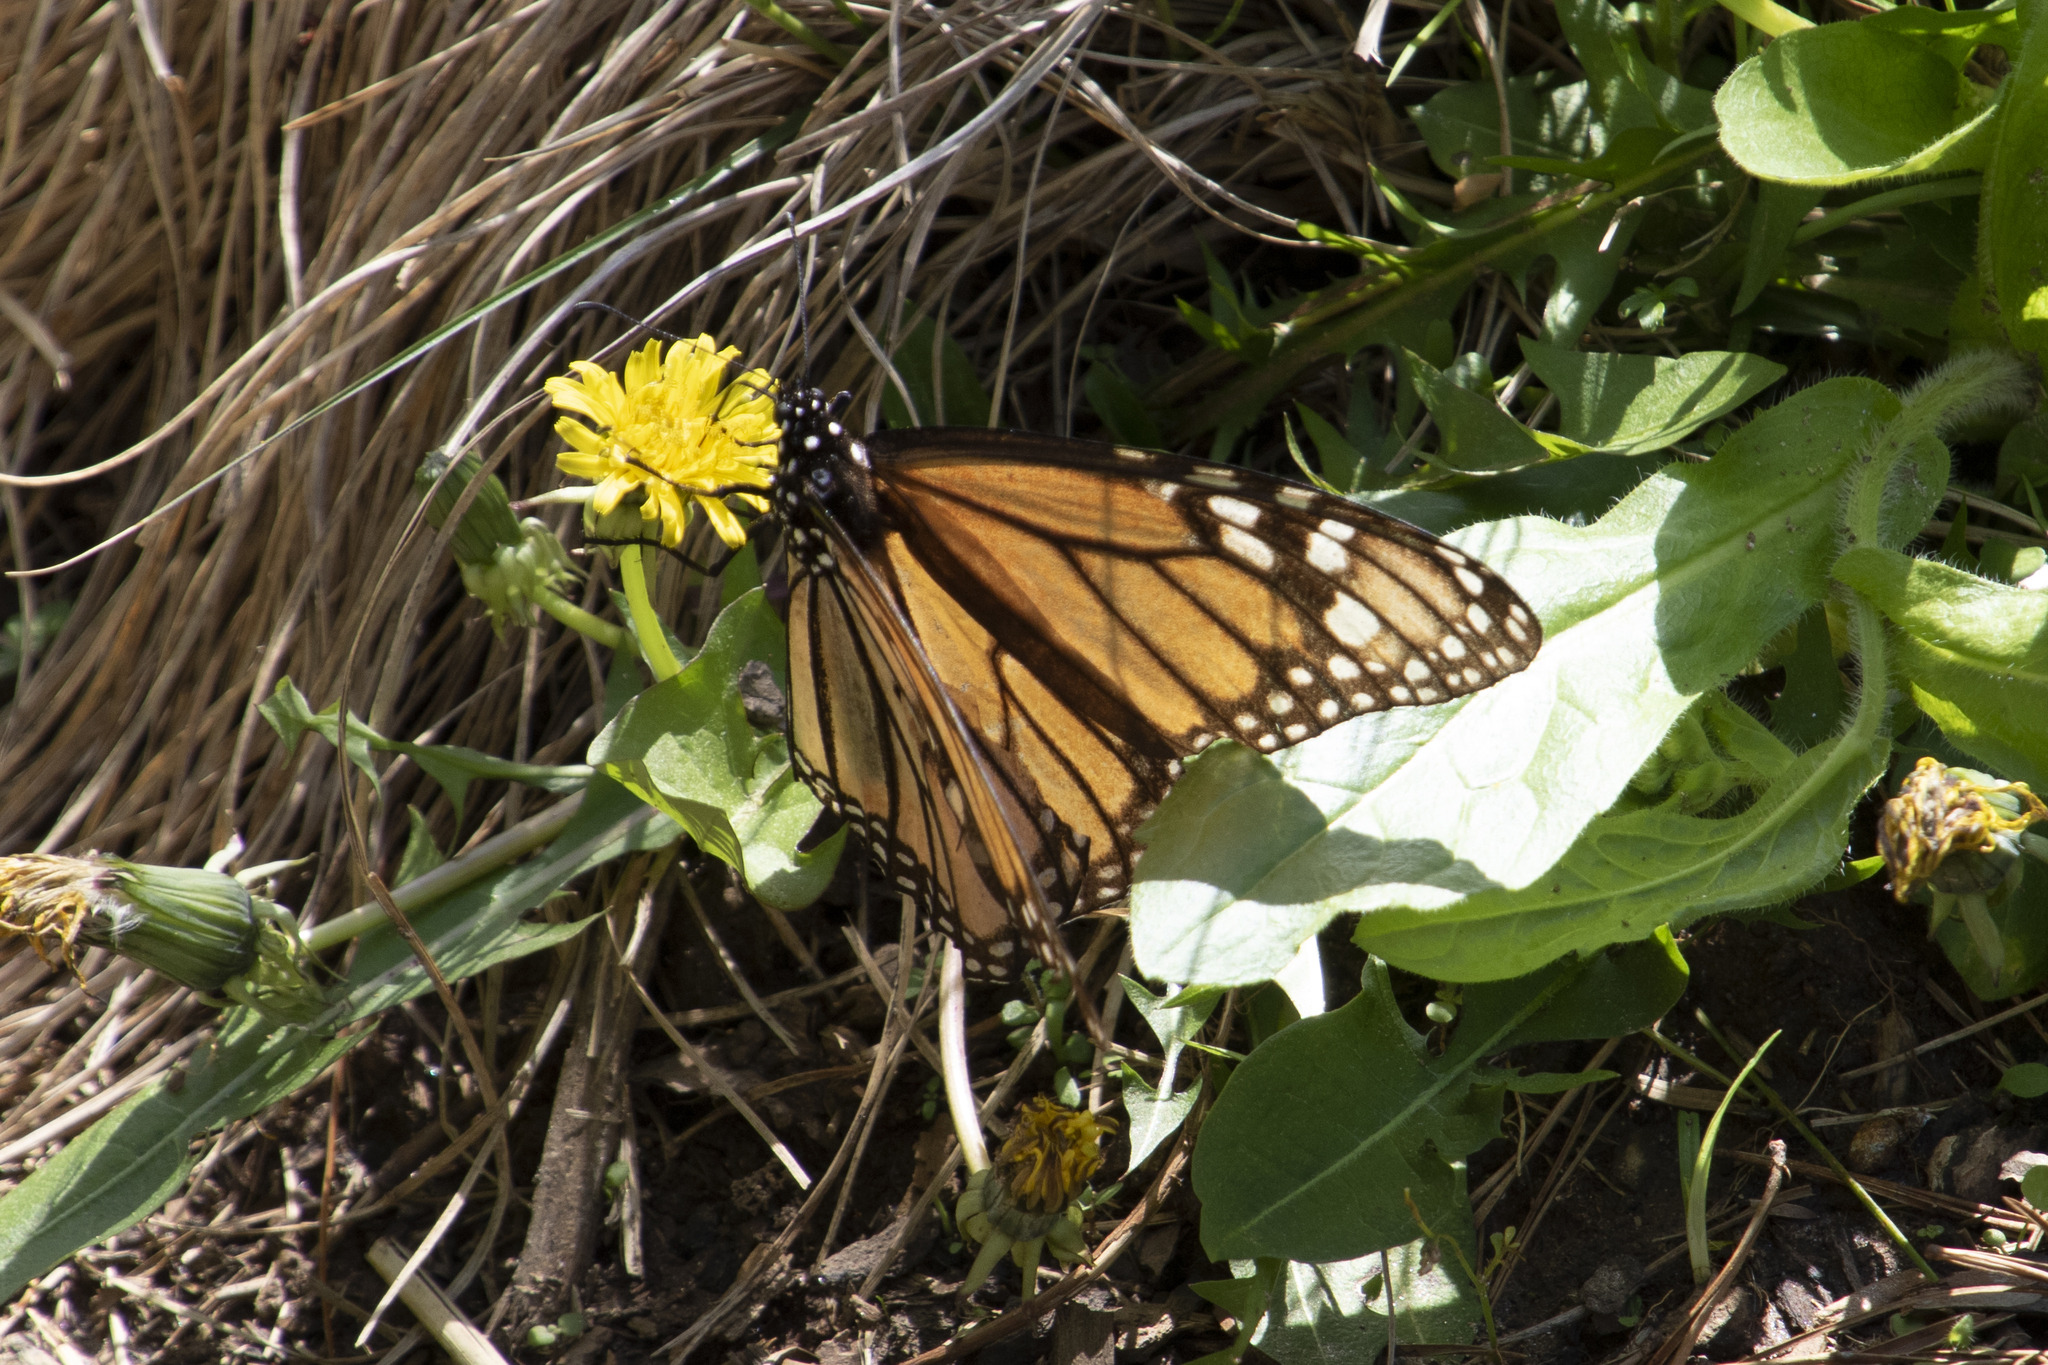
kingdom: Animalia
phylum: Arthropoda
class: Insecta
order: Lepidoptera
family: Nymphalidae
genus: Danaus
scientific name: Danaus plexippus
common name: Monarch
